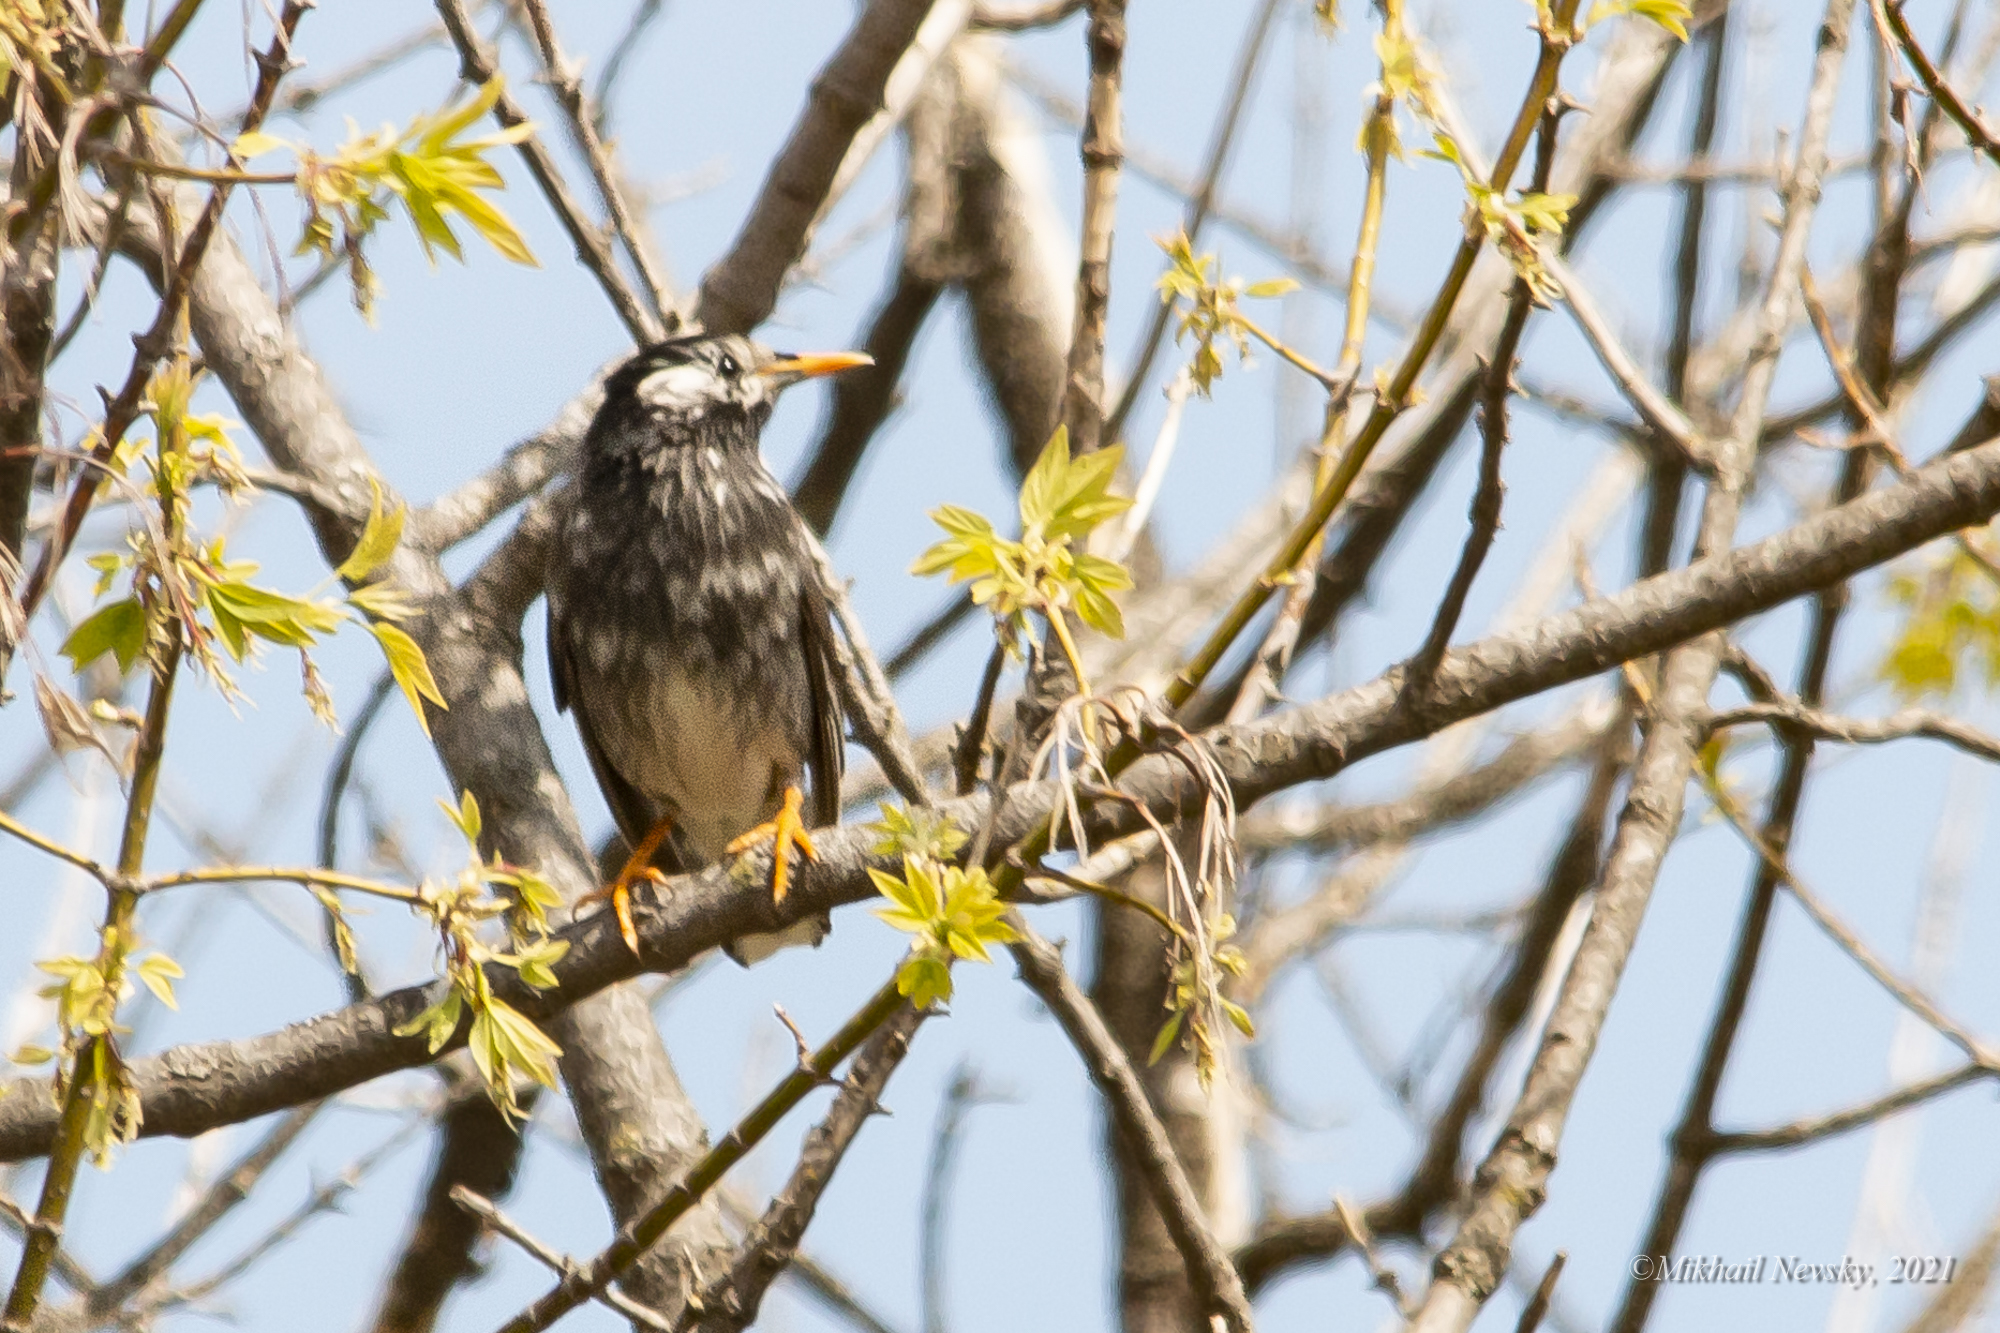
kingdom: Animalia
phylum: Chordata
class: Aves
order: Passeriformes
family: Sturnidae
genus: Spodiopsar
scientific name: Spodiopsar cineraceus
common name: White-cheeked starling
